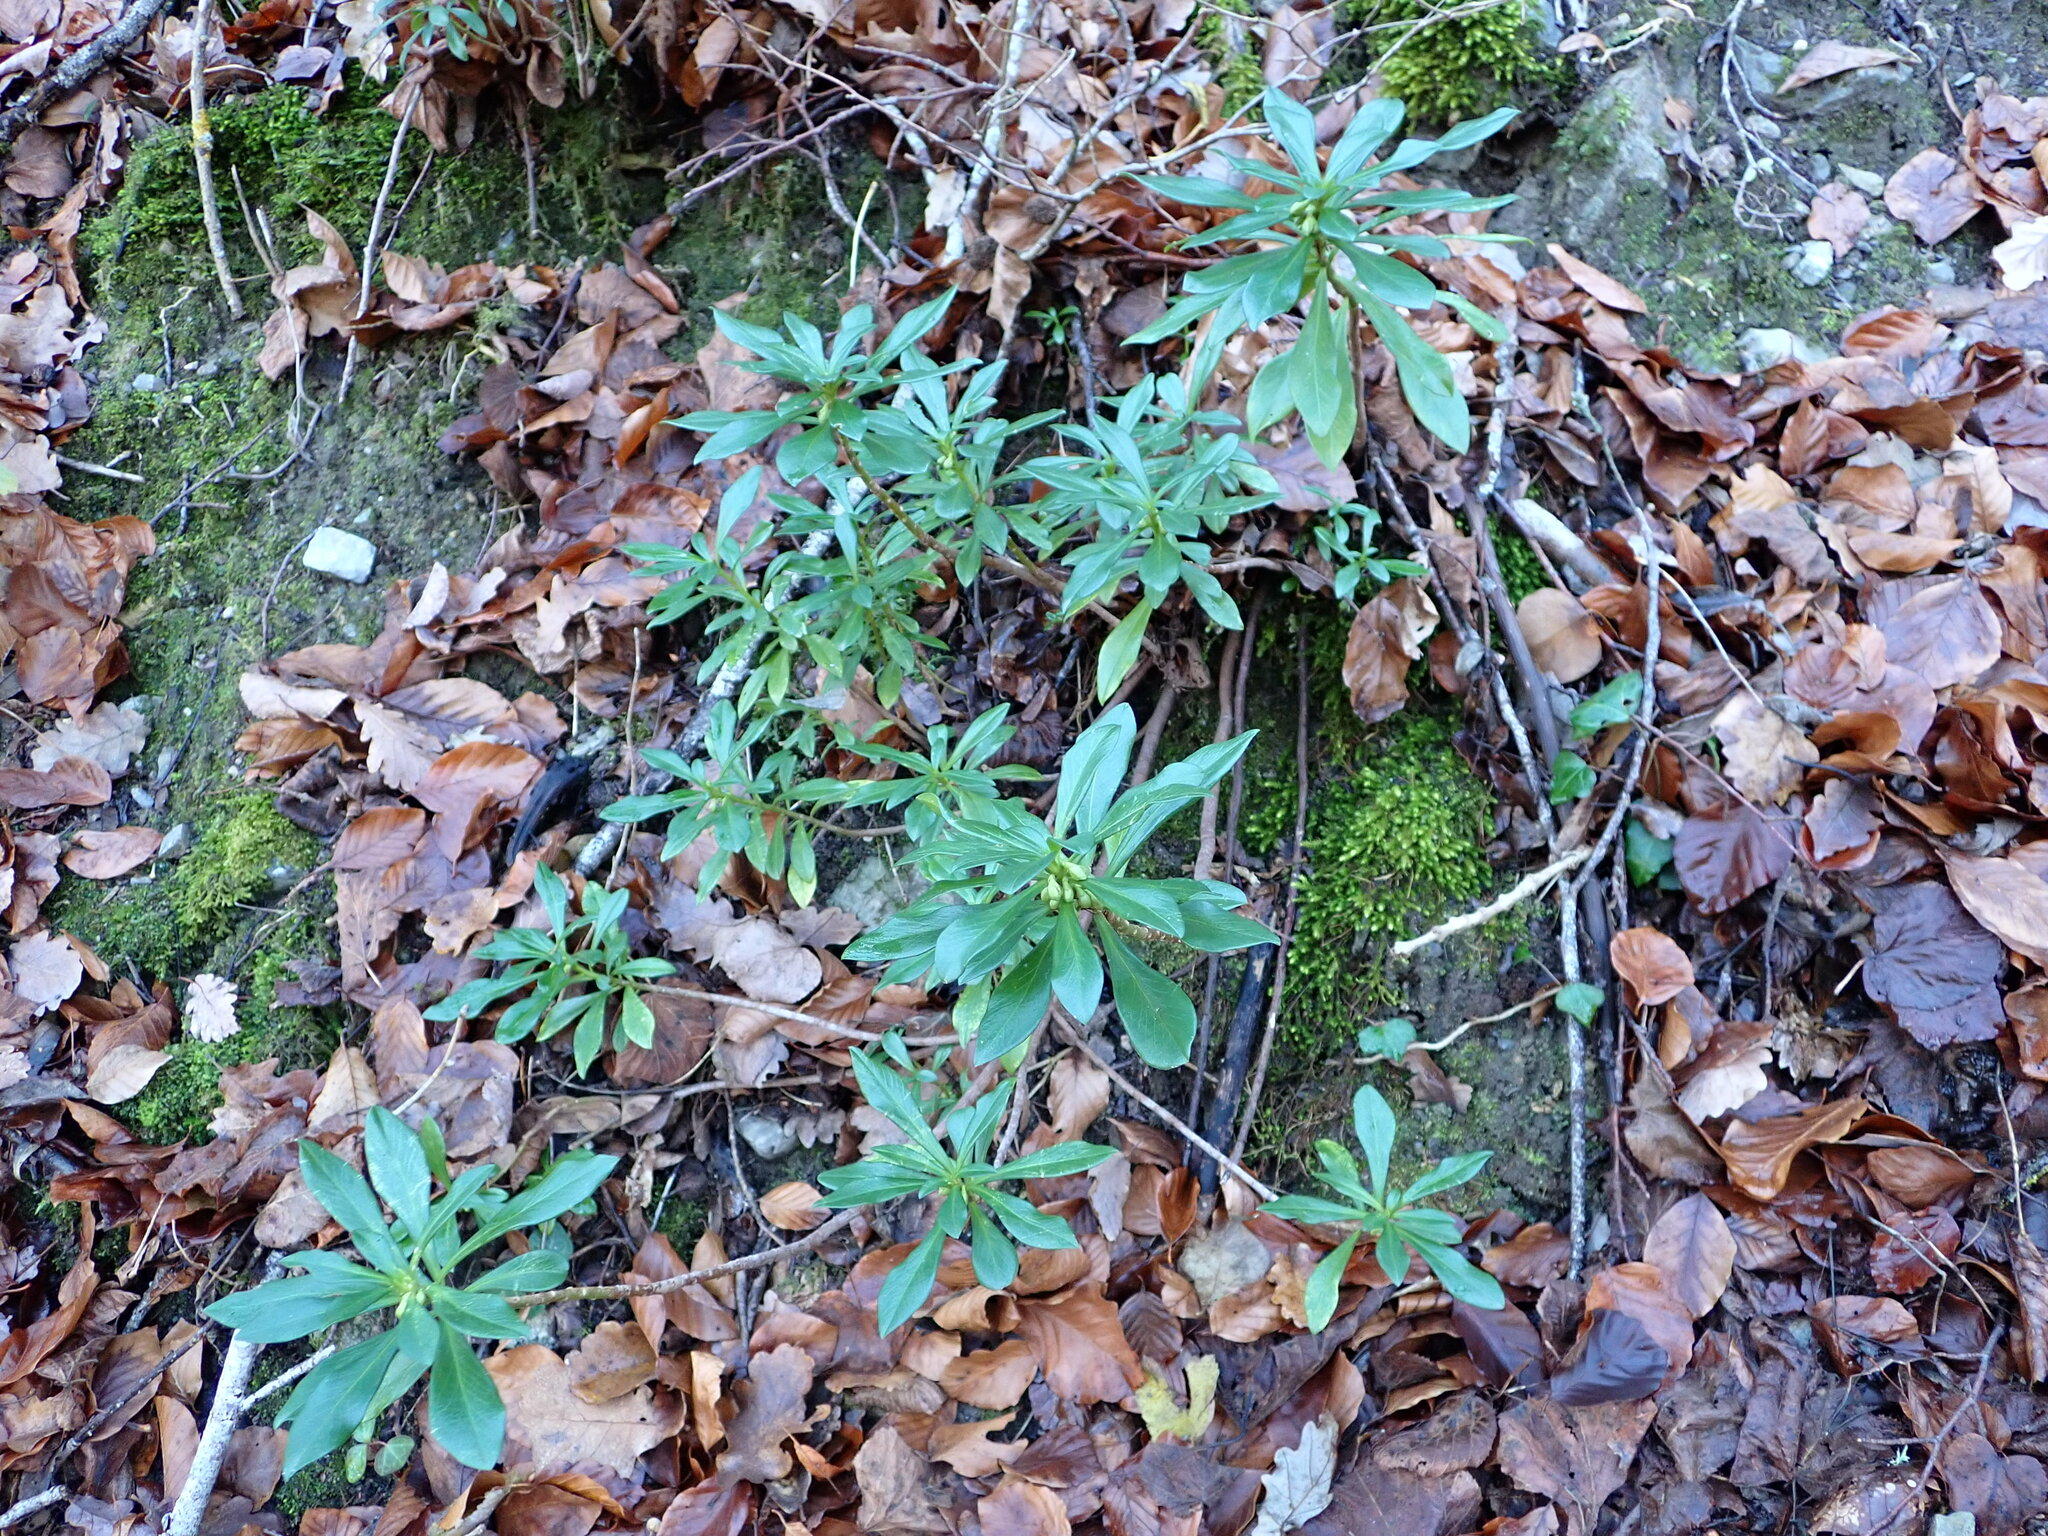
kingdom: Plantae
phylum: Tracheophyta
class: Magnoliopsida
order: Malvales
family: Thymelaeaceae
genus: Daphne
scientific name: Daphne laureola
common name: Spurge-laurel
